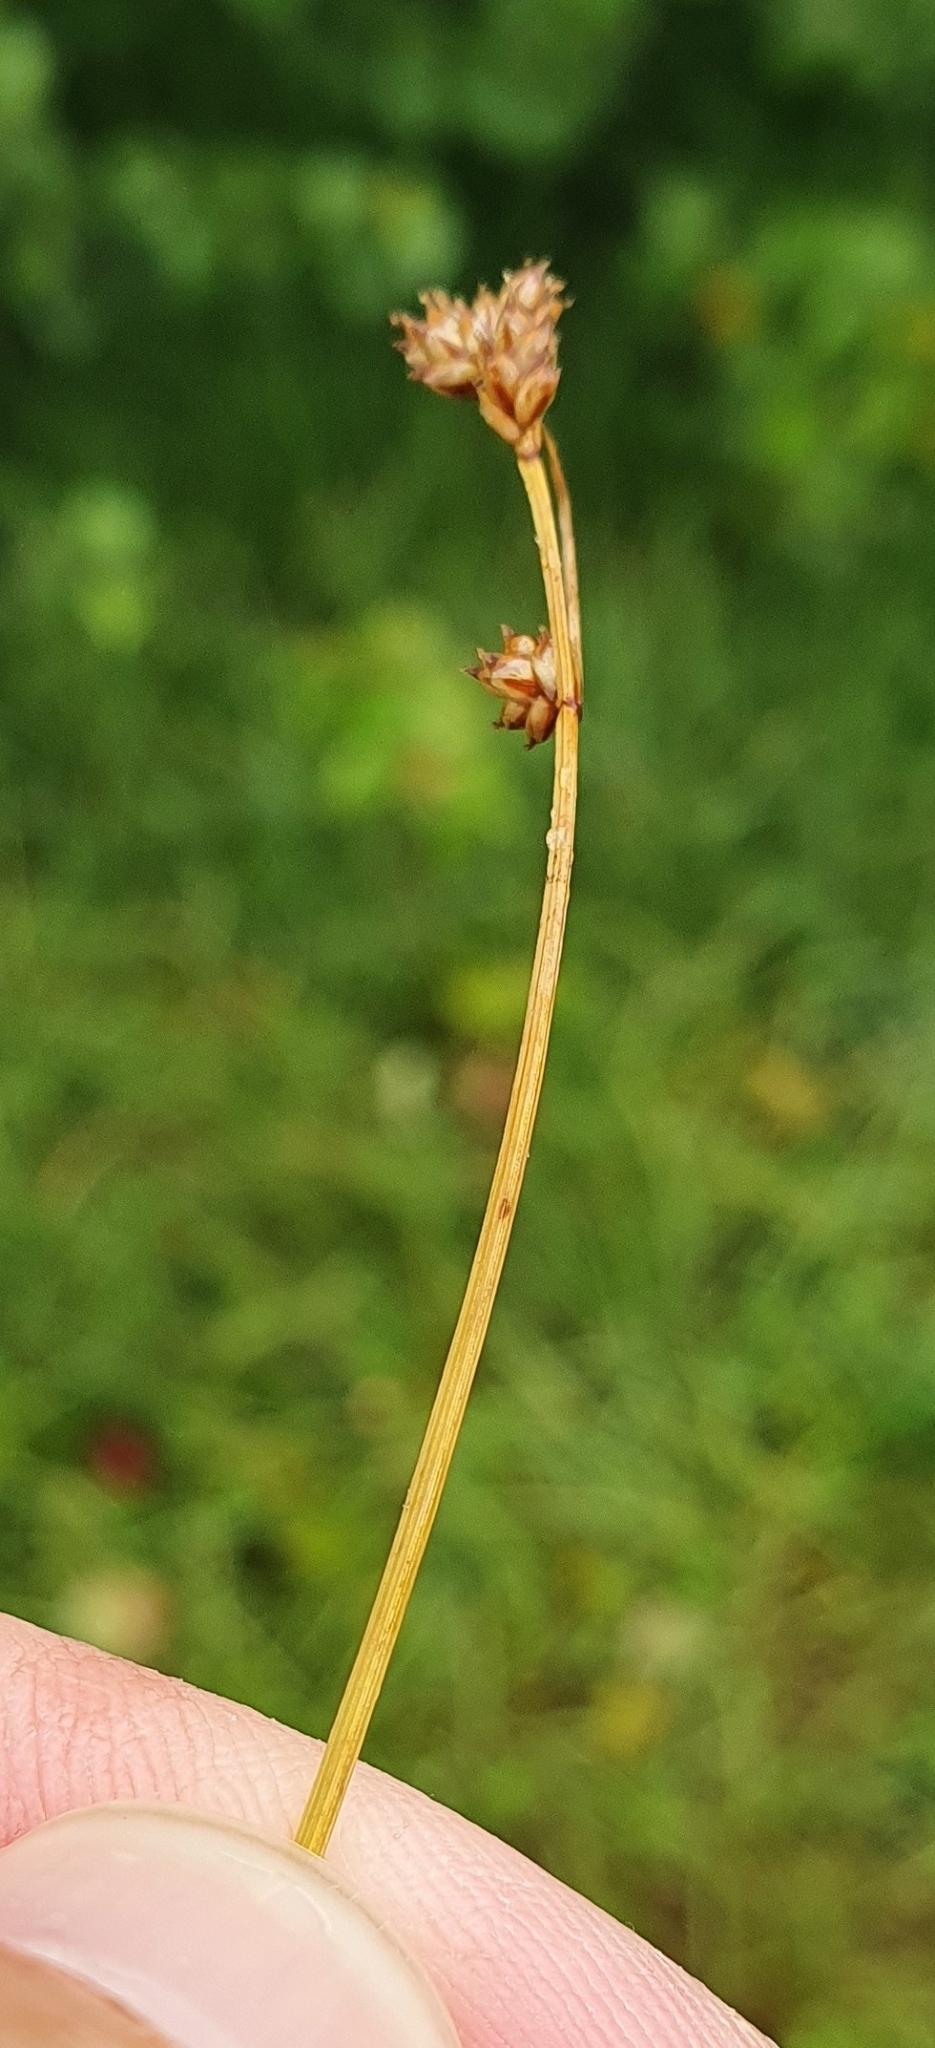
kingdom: Plantae
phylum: Tracheophyta
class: Liliopsida
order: Poales
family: Cyperaceae
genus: Carex
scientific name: Carex brunnescens
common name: Brown sedge
